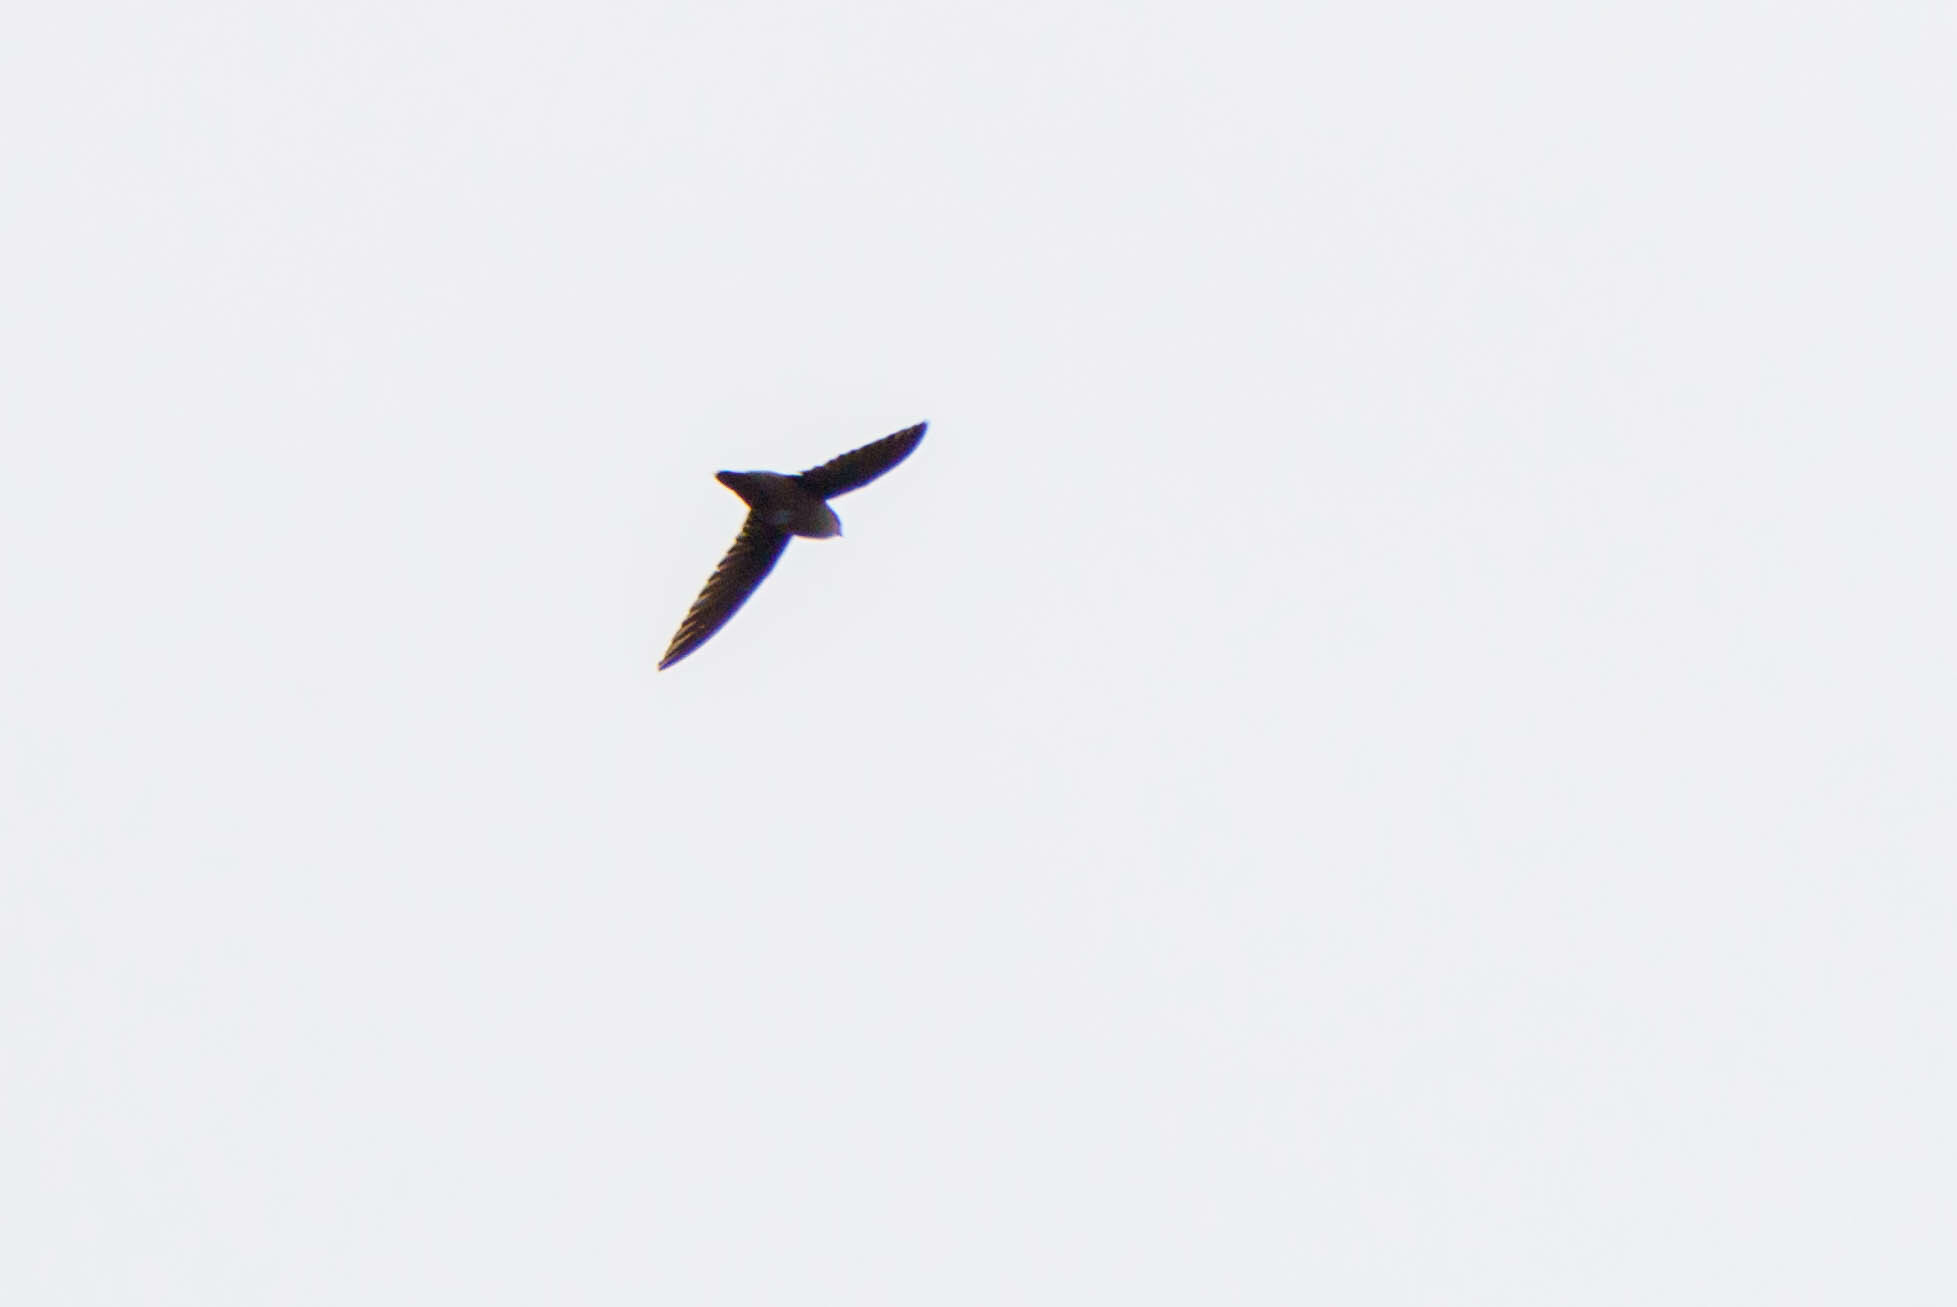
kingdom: Animalia
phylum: Chordata
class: Aves
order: Apodiformes
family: Apodidae
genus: Chaetura
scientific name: Chaetura vauxi
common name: Vaux's swift
